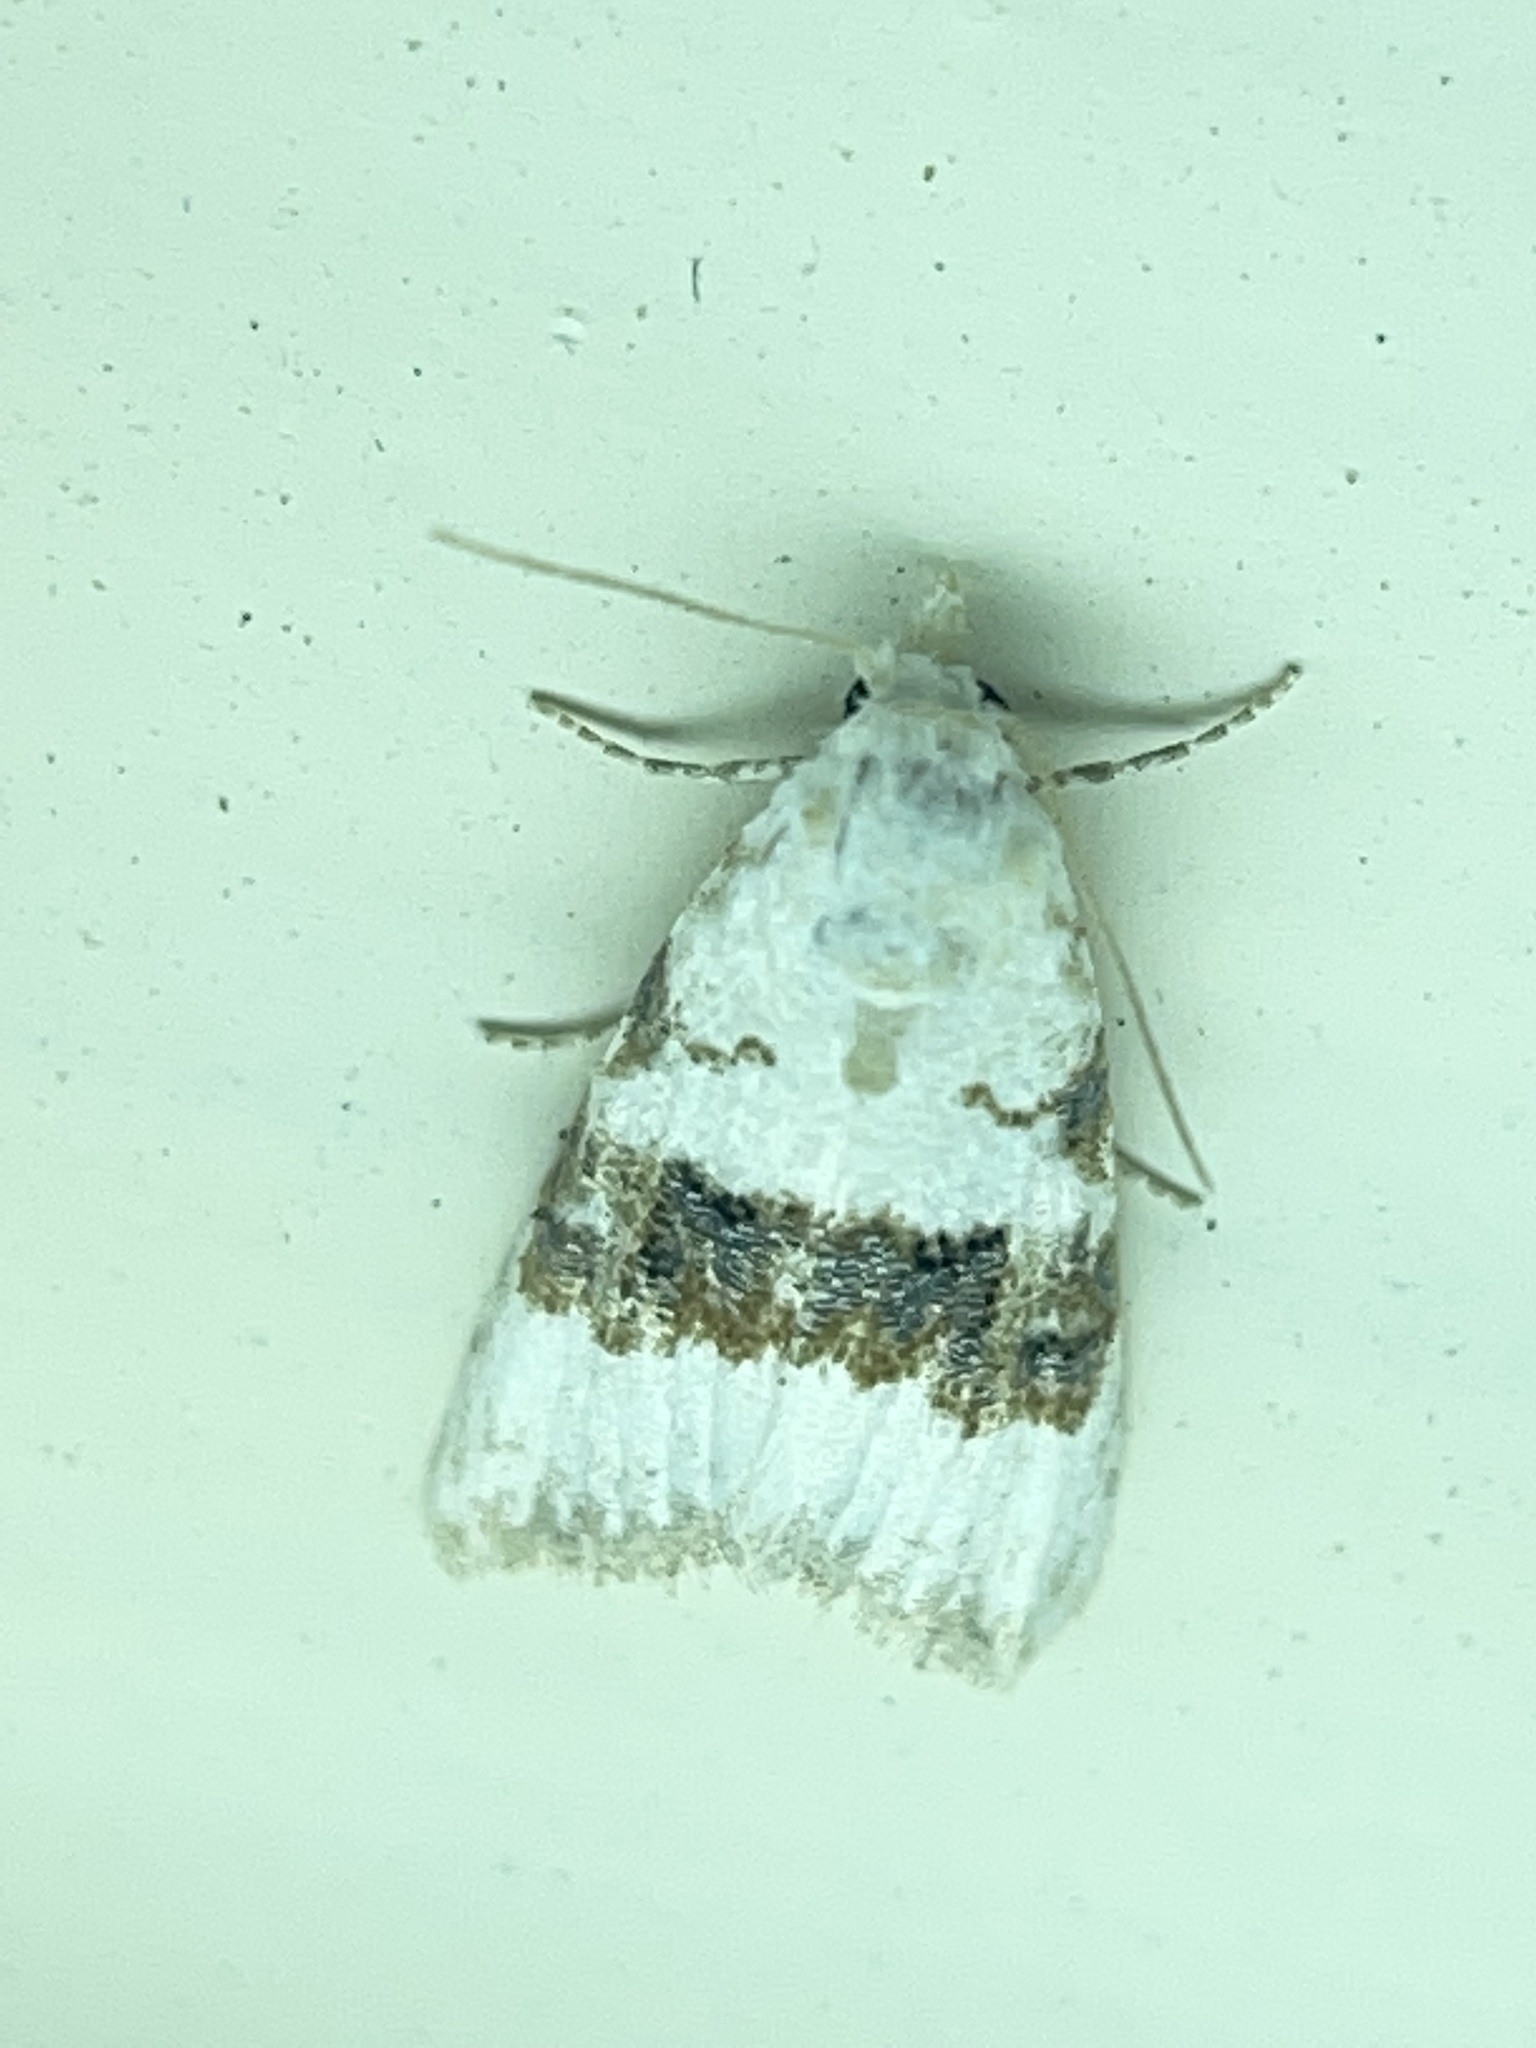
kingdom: Animalia
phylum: Arthropoda
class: Insecta
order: Lepidoptera
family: Nolidae
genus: Nola
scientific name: Nola taeniata
